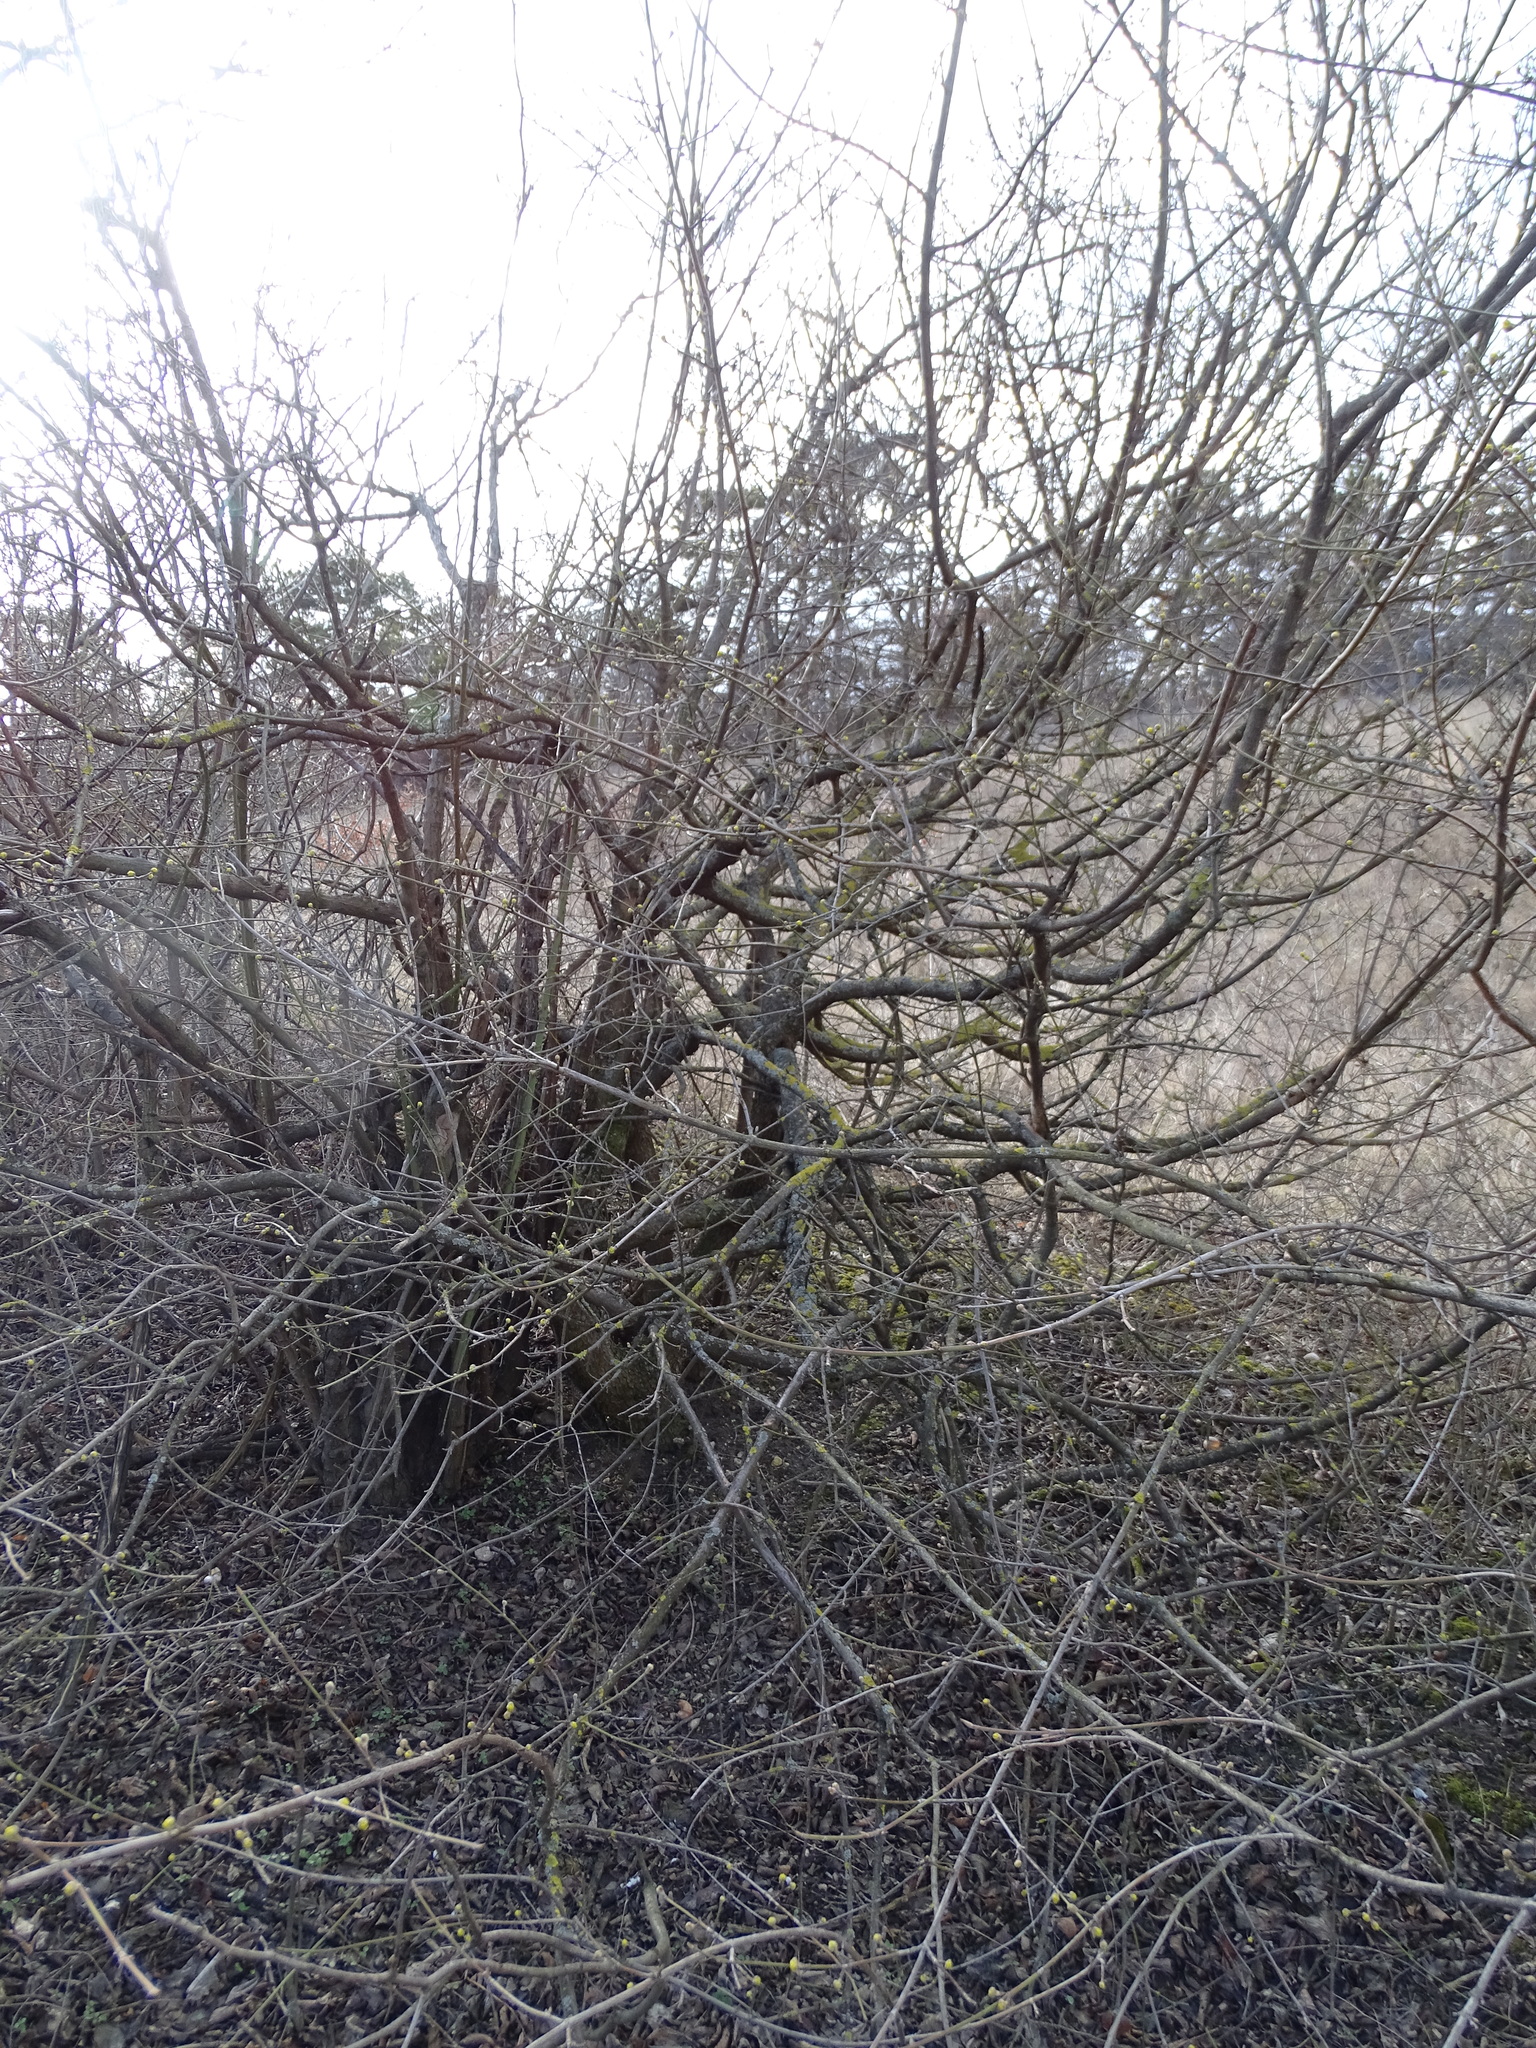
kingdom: Plantae
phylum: Tracheophyta
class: Magnoliopsida
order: Cornales
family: Cornaceae
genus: Cornus
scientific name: Cornus mas
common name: Cornelian-cherry
